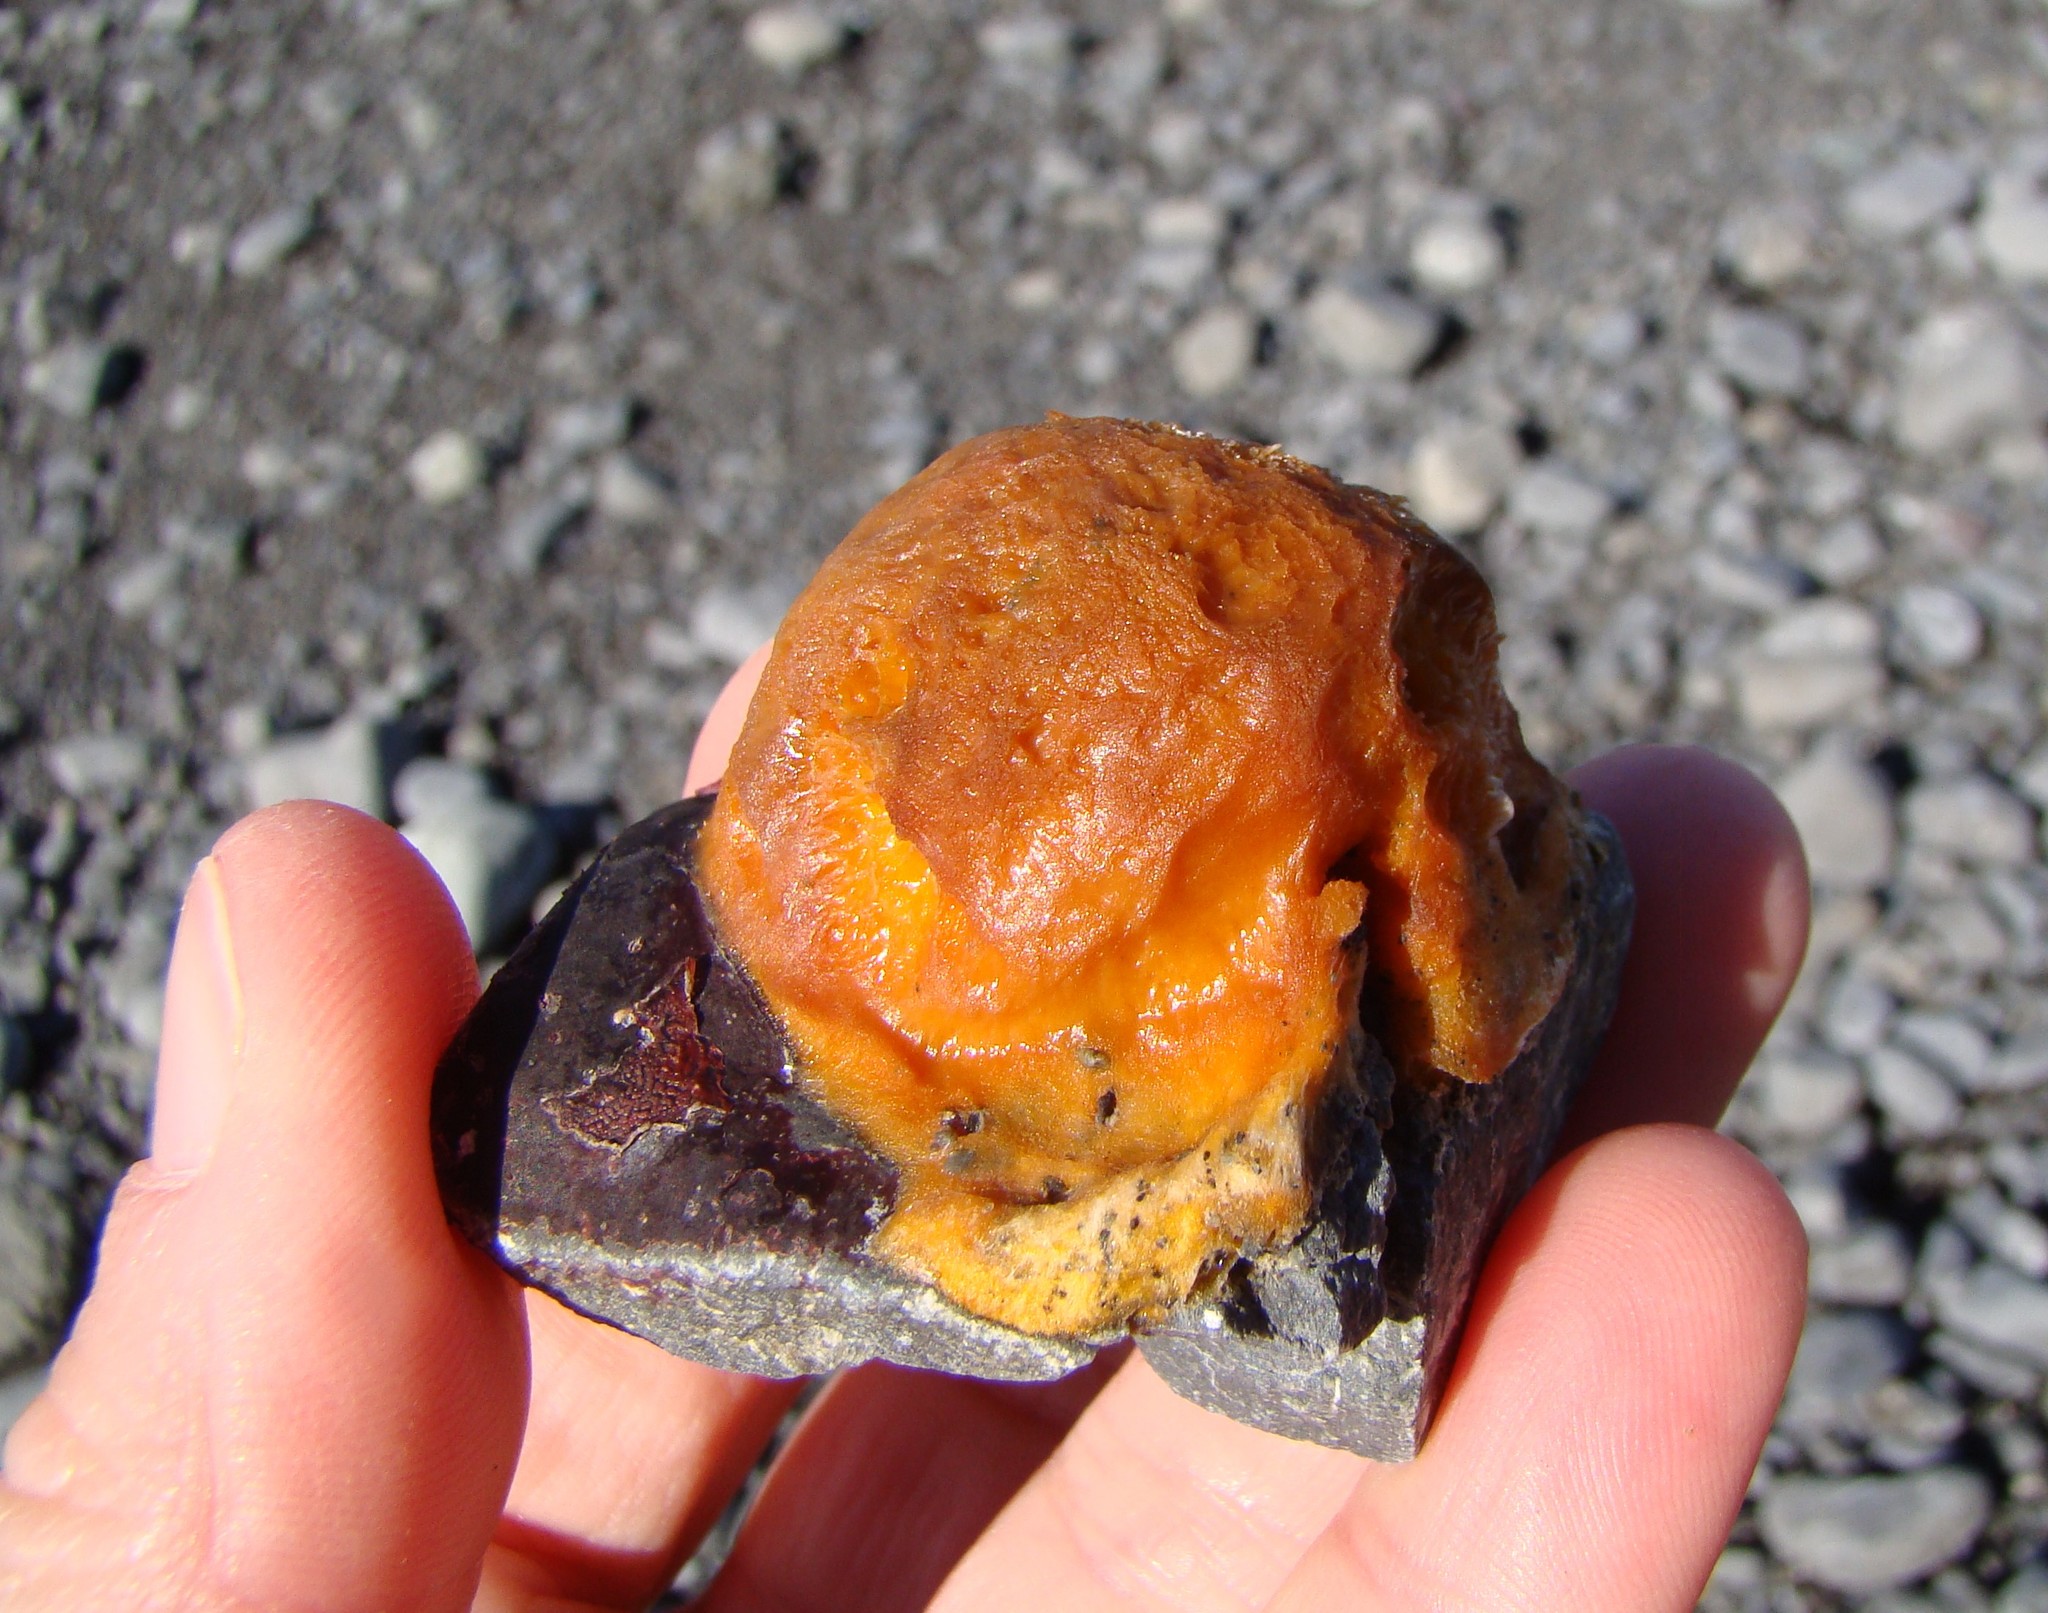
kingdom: Animalia
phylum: Porifera
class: Demospongiae
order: Tethyida
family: Tethyidae
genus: Tethya
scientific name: Tethya burtoni
